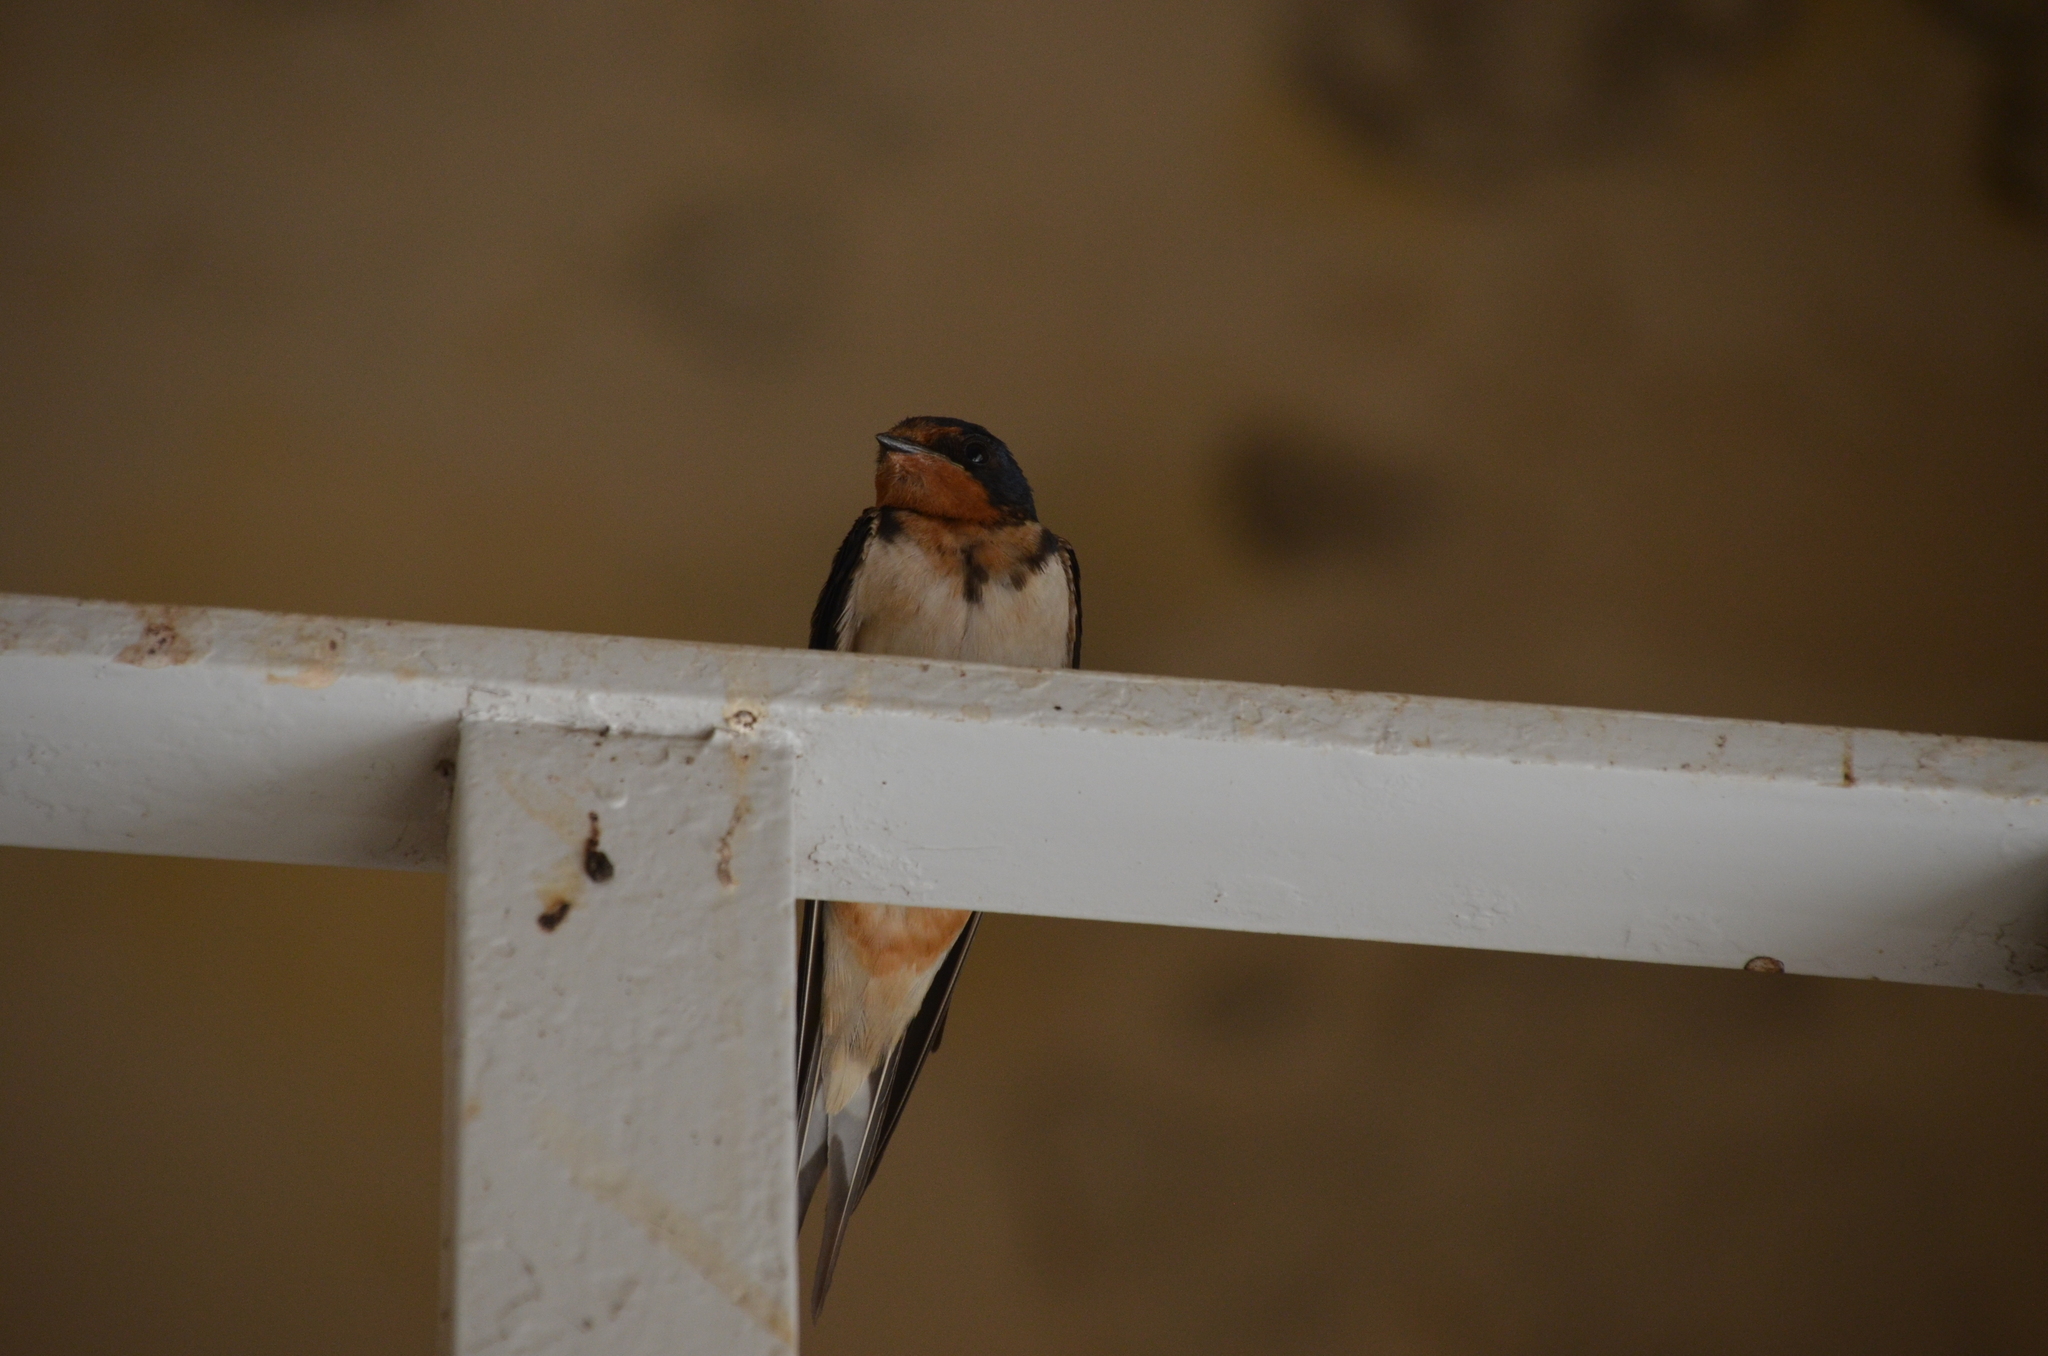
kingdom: Animalia
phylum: Chordata
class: Aves
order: Passeriformes
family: Hirundinidae
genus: Hirundo
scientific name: Hirundo rustica
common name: Barn swallow
